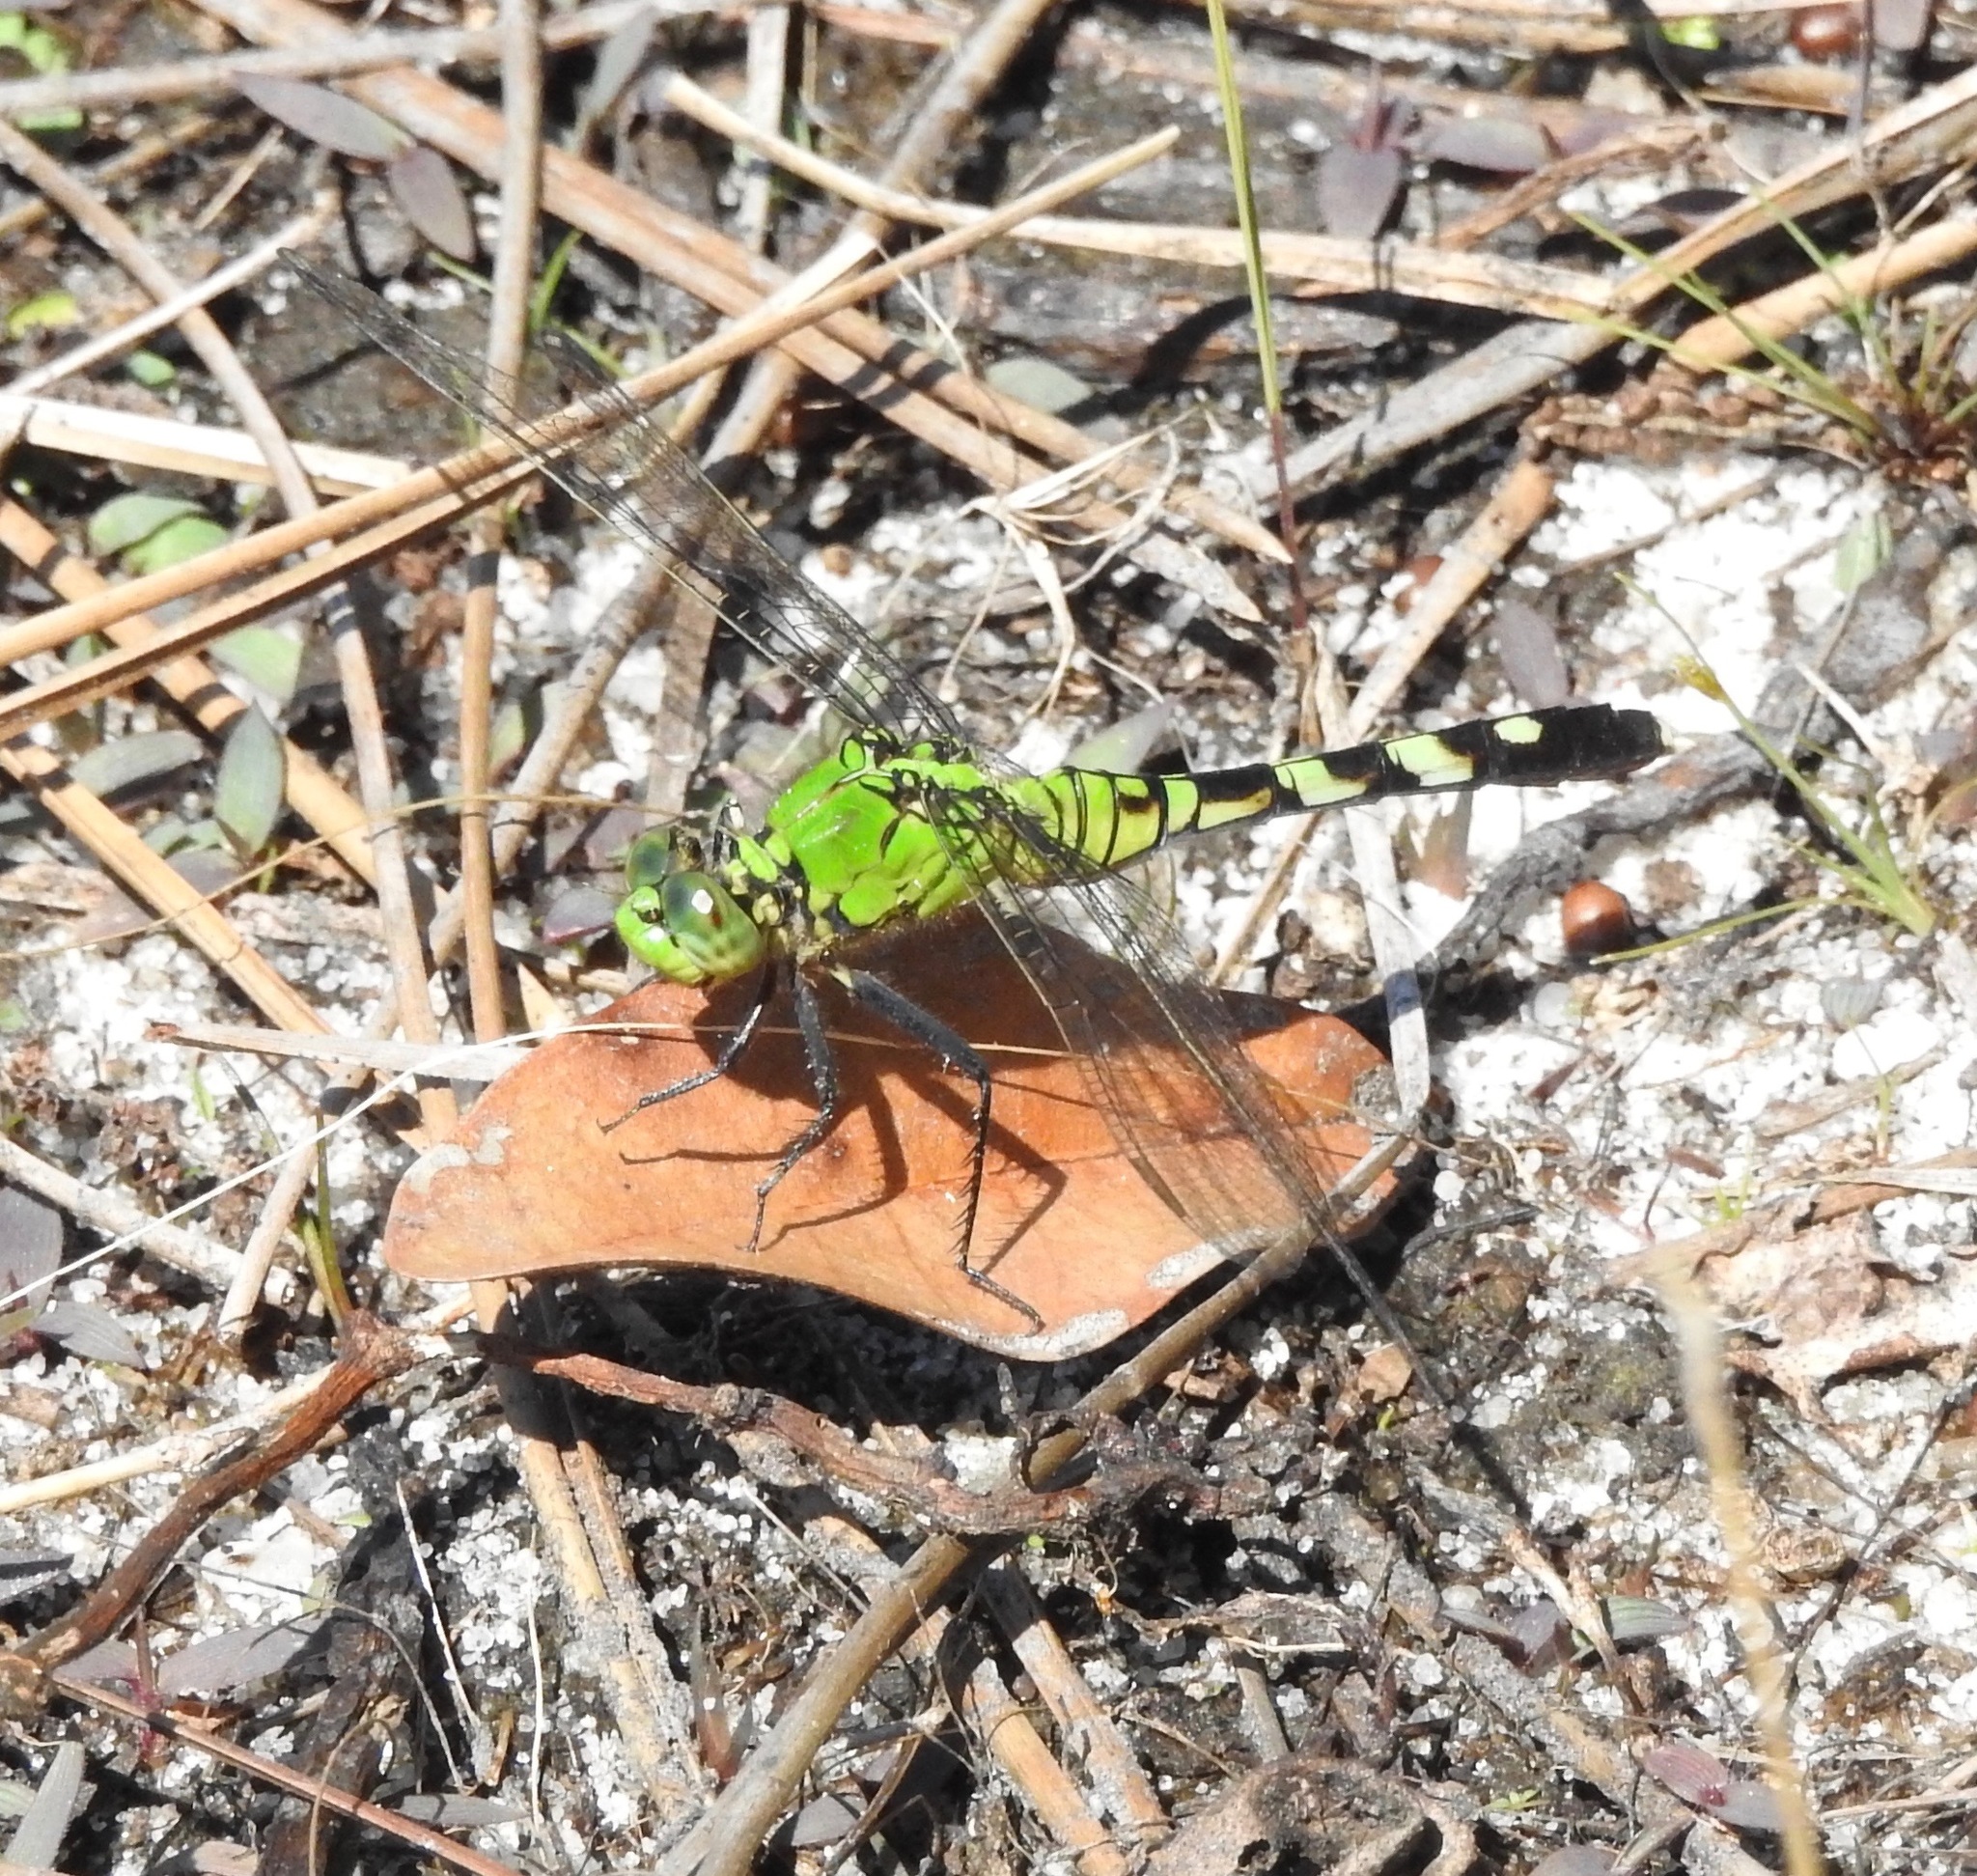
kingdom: Animalia
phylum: Arthropoda
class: Insecta
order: Odonata
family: Libellulidae
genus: Erythemis
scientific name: Erythemis simplicicollis
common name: Eastern pondhawk
